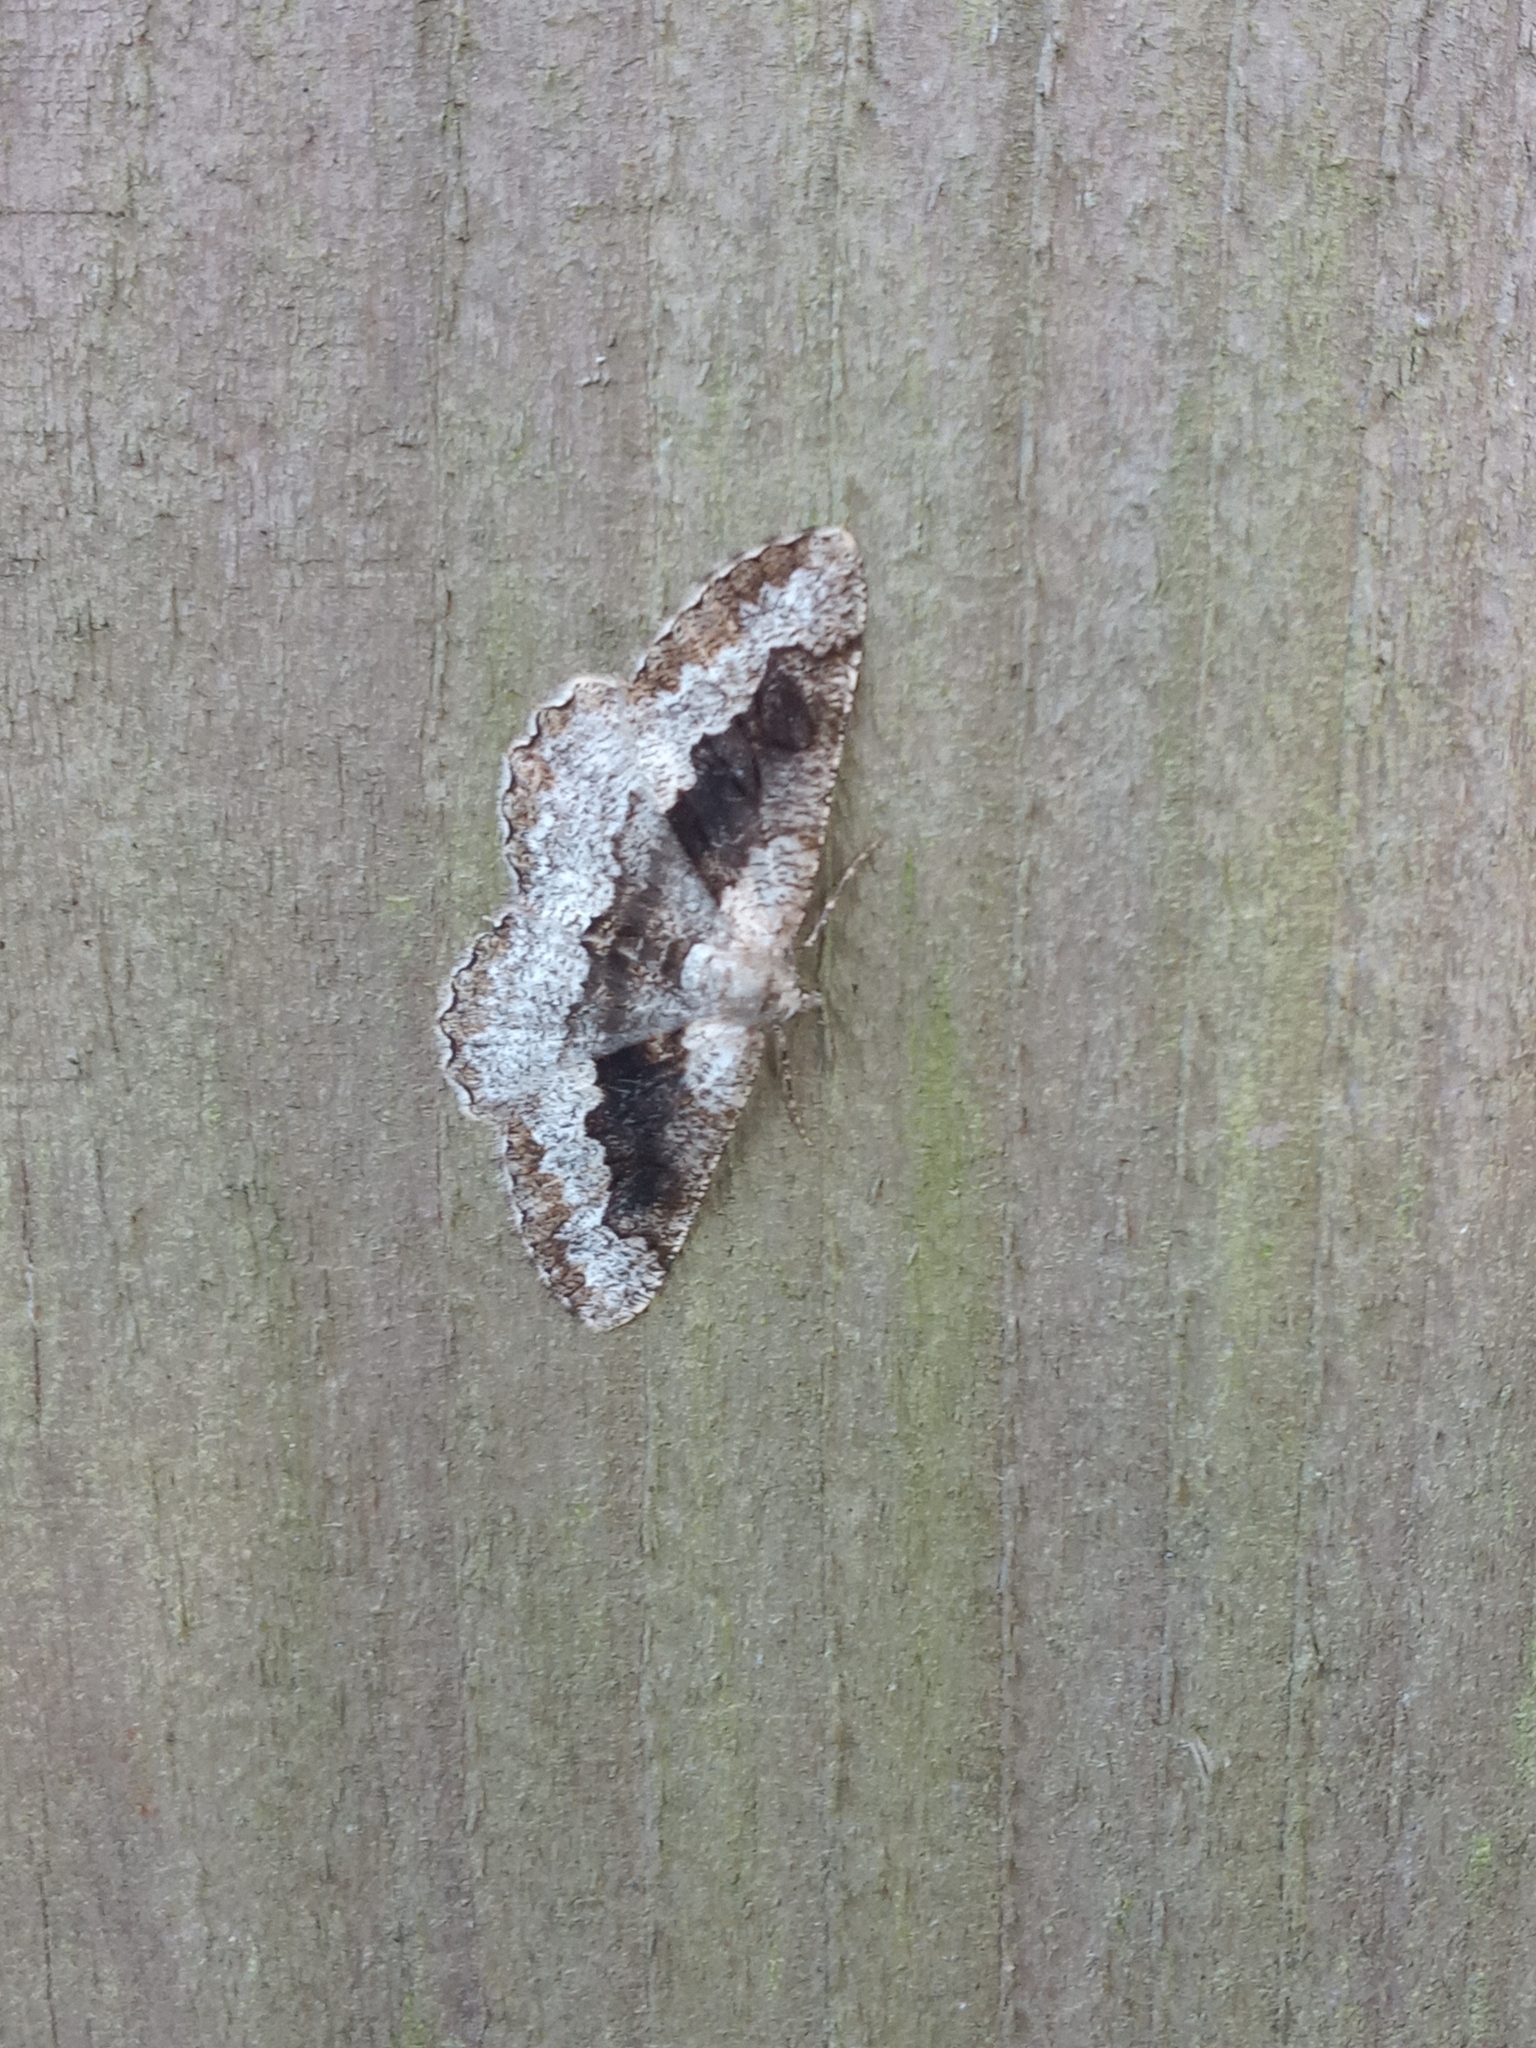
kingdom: Animalia
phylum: Arthropoda
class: Insecta
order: Lepidoptera
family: Geometridae
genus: Alcis
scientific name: Alcis repandata
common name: Mottled beauty
